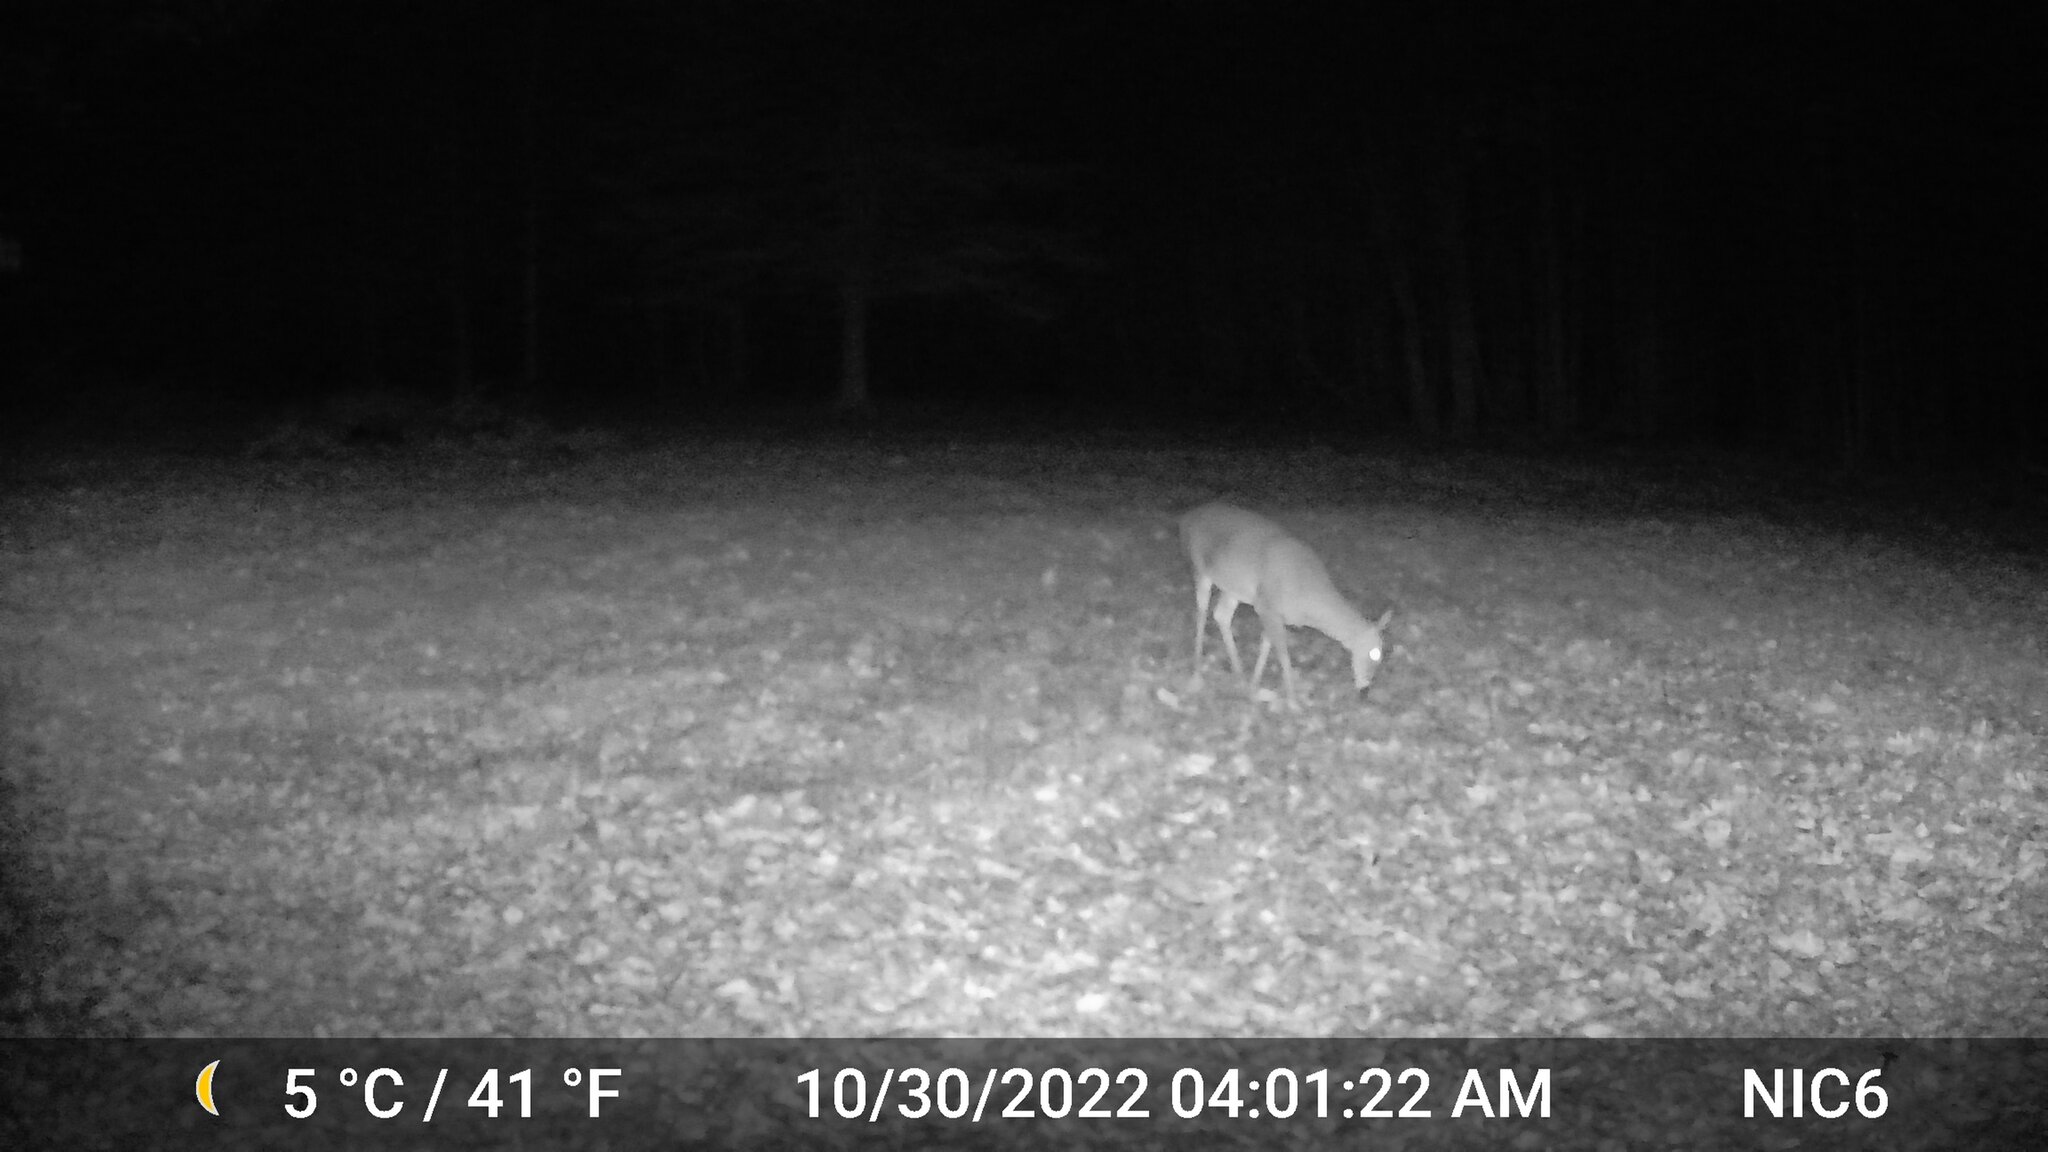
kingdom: Animalia
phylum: Chordata
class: Mammalia
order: Artiodactyla
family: Cervidae
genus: Odocoileus
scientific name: Odocoileus virginianus
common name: White-tailed deer
